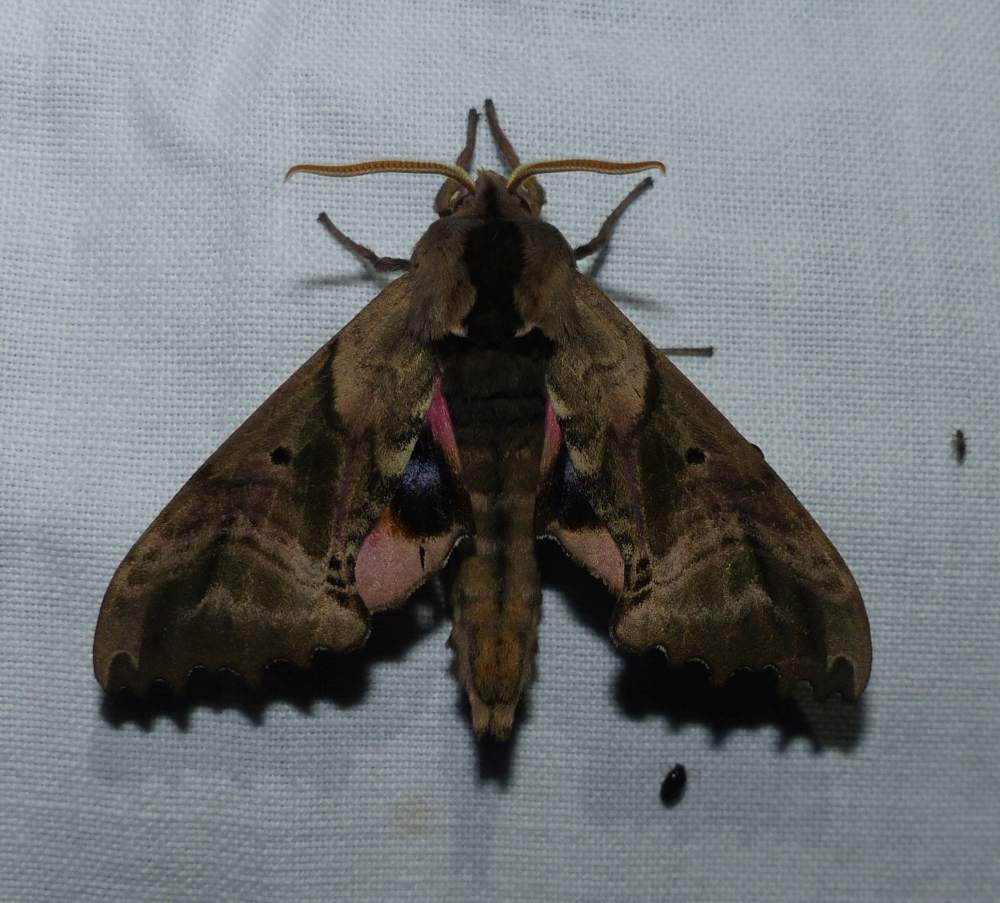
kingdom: Animalia
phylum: Arthropoda
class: Insecta
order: Lepidoptera
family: Sphingidae
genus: Paonias
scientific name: Paonias excaecata
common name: Blind-eyed sphinx
